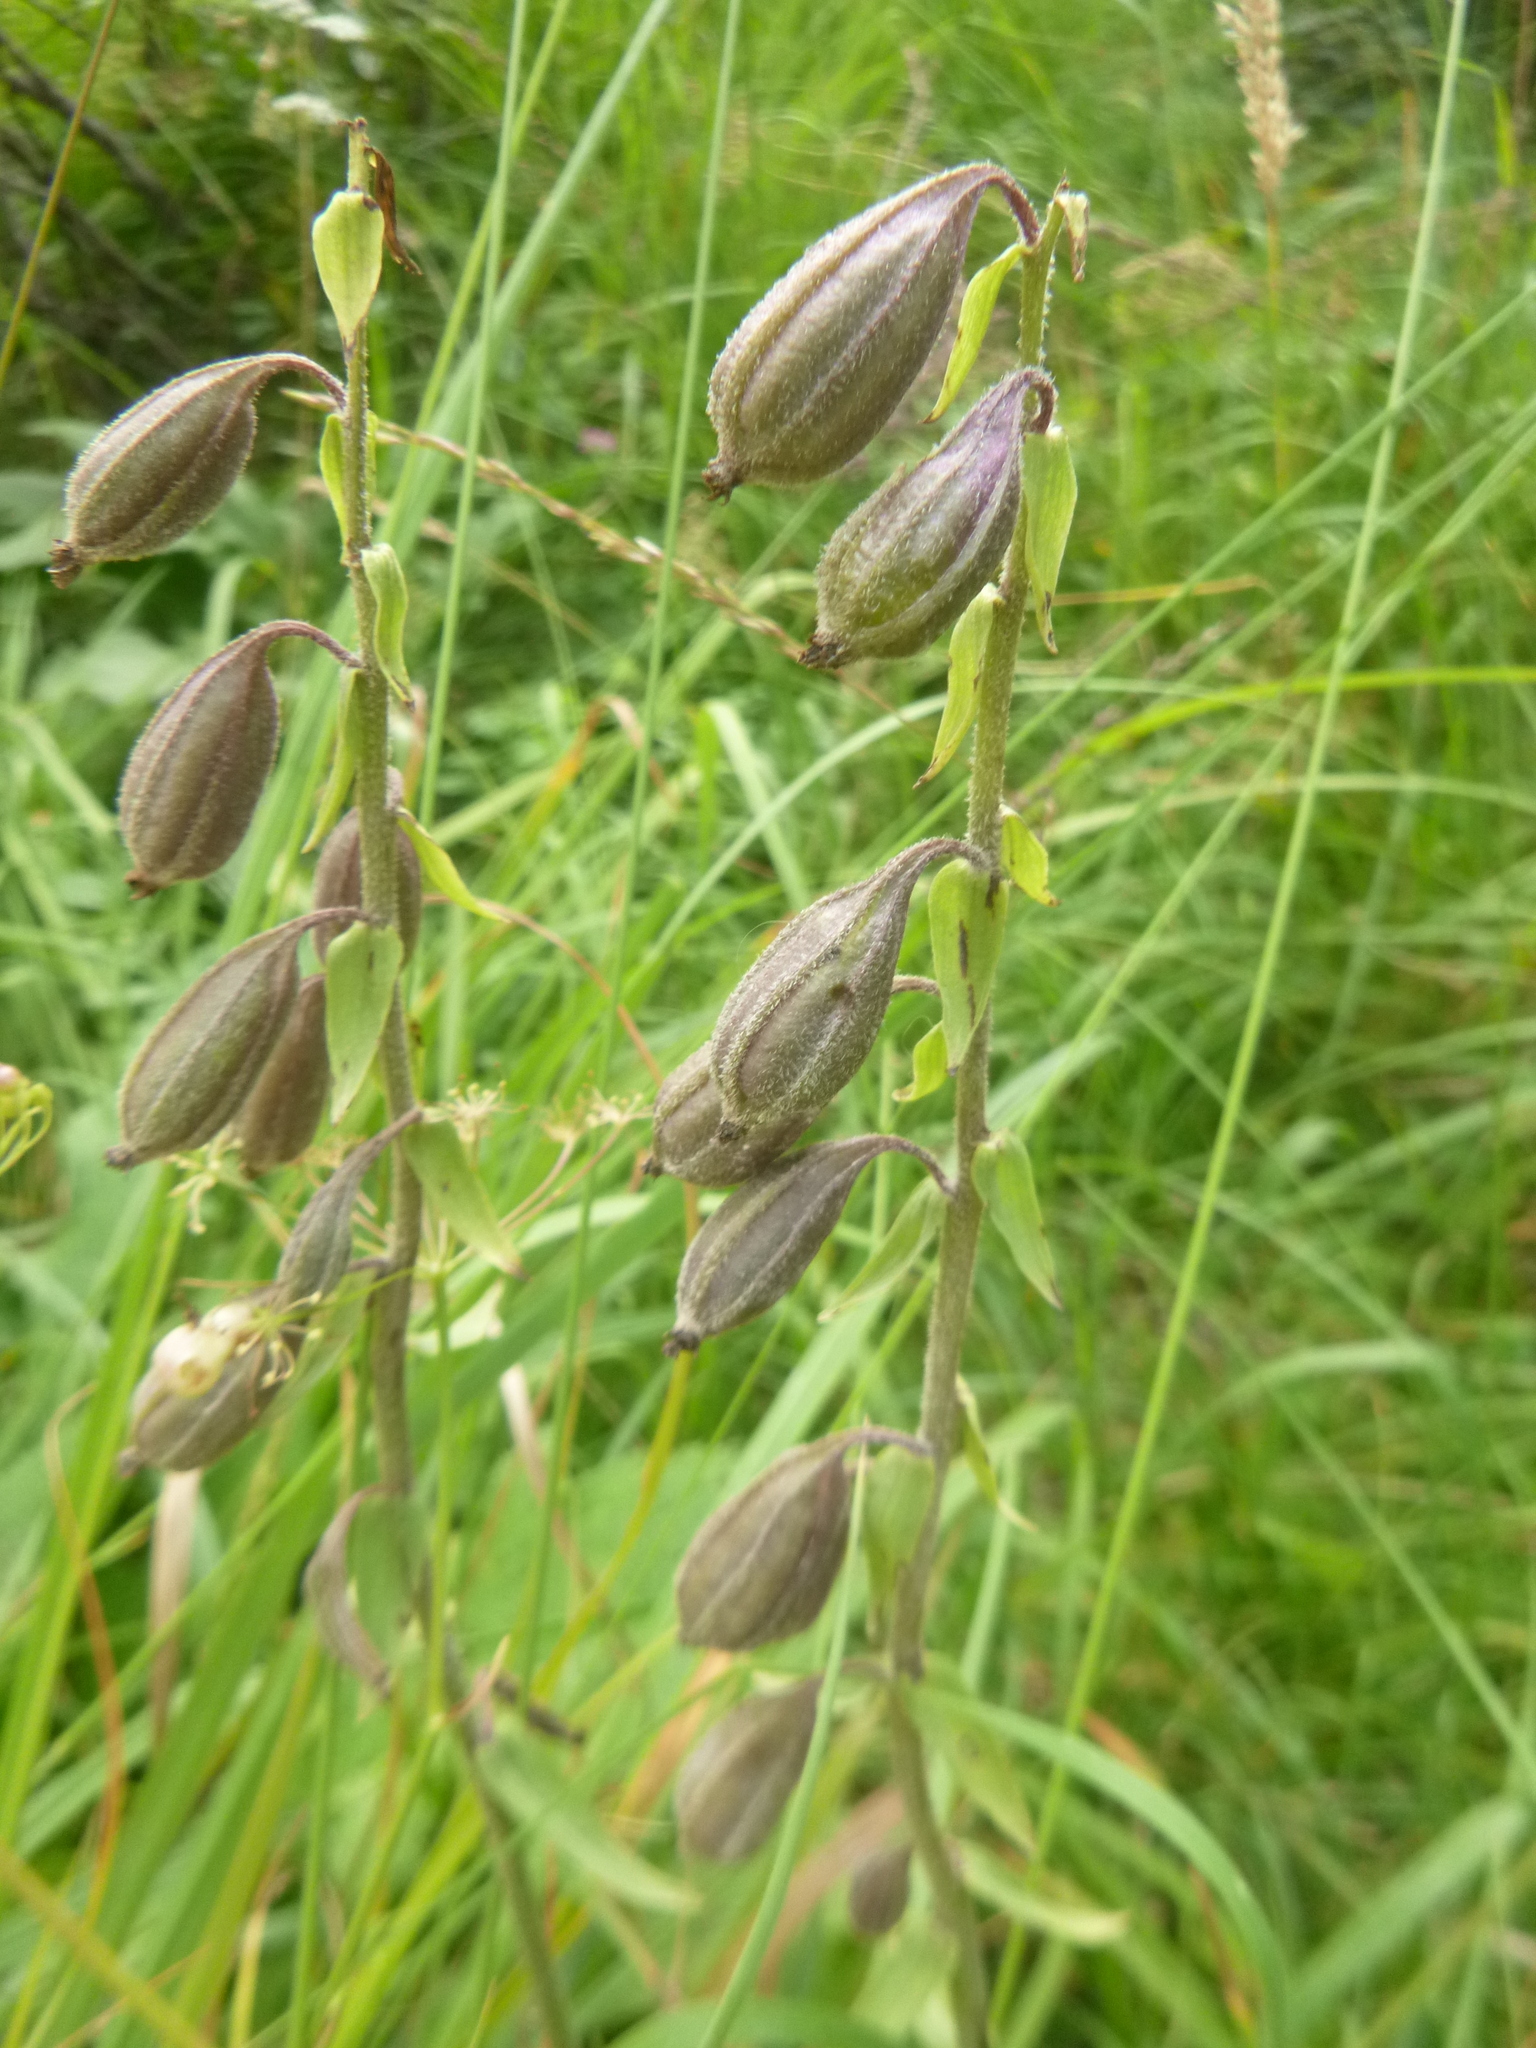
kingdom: Plantae
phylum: Tracheophyta
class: Liliopsida
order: Asparagales
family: Orchidaceae
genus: Epipactis
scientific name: Epipactis palustris
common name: Marsh helleborine
